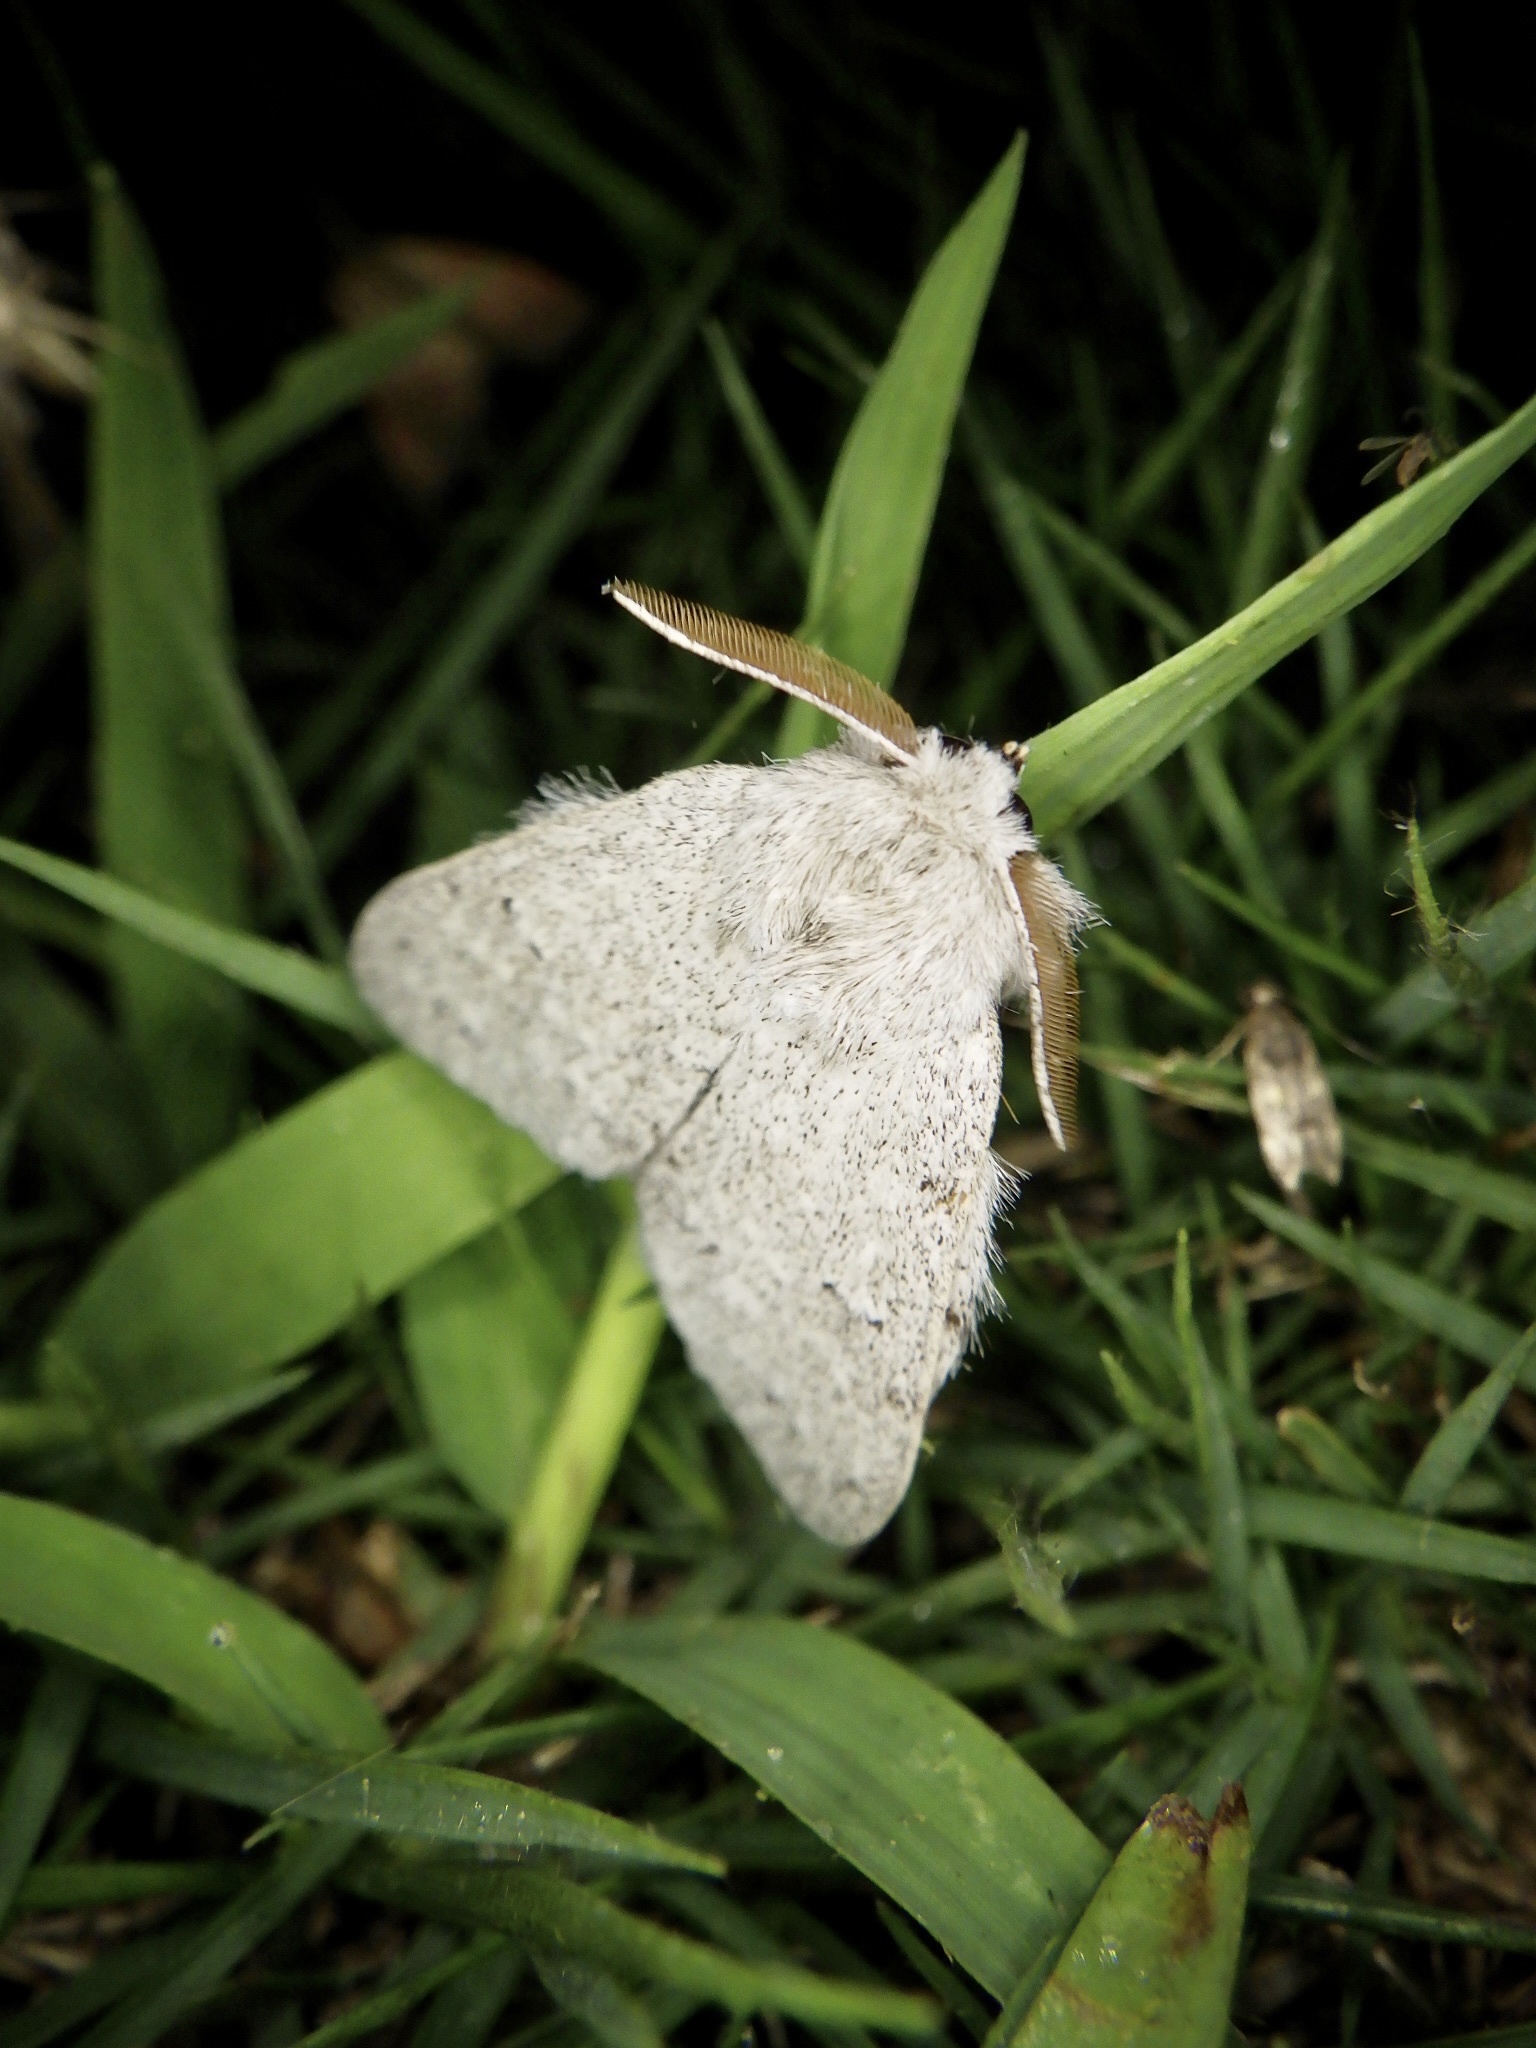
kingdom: Animalia
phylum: Arthropoda
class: Insecta
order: Lepidoptera
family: Notodontidae
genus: Cnethodonta
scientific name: Cnethodonta grisescens
